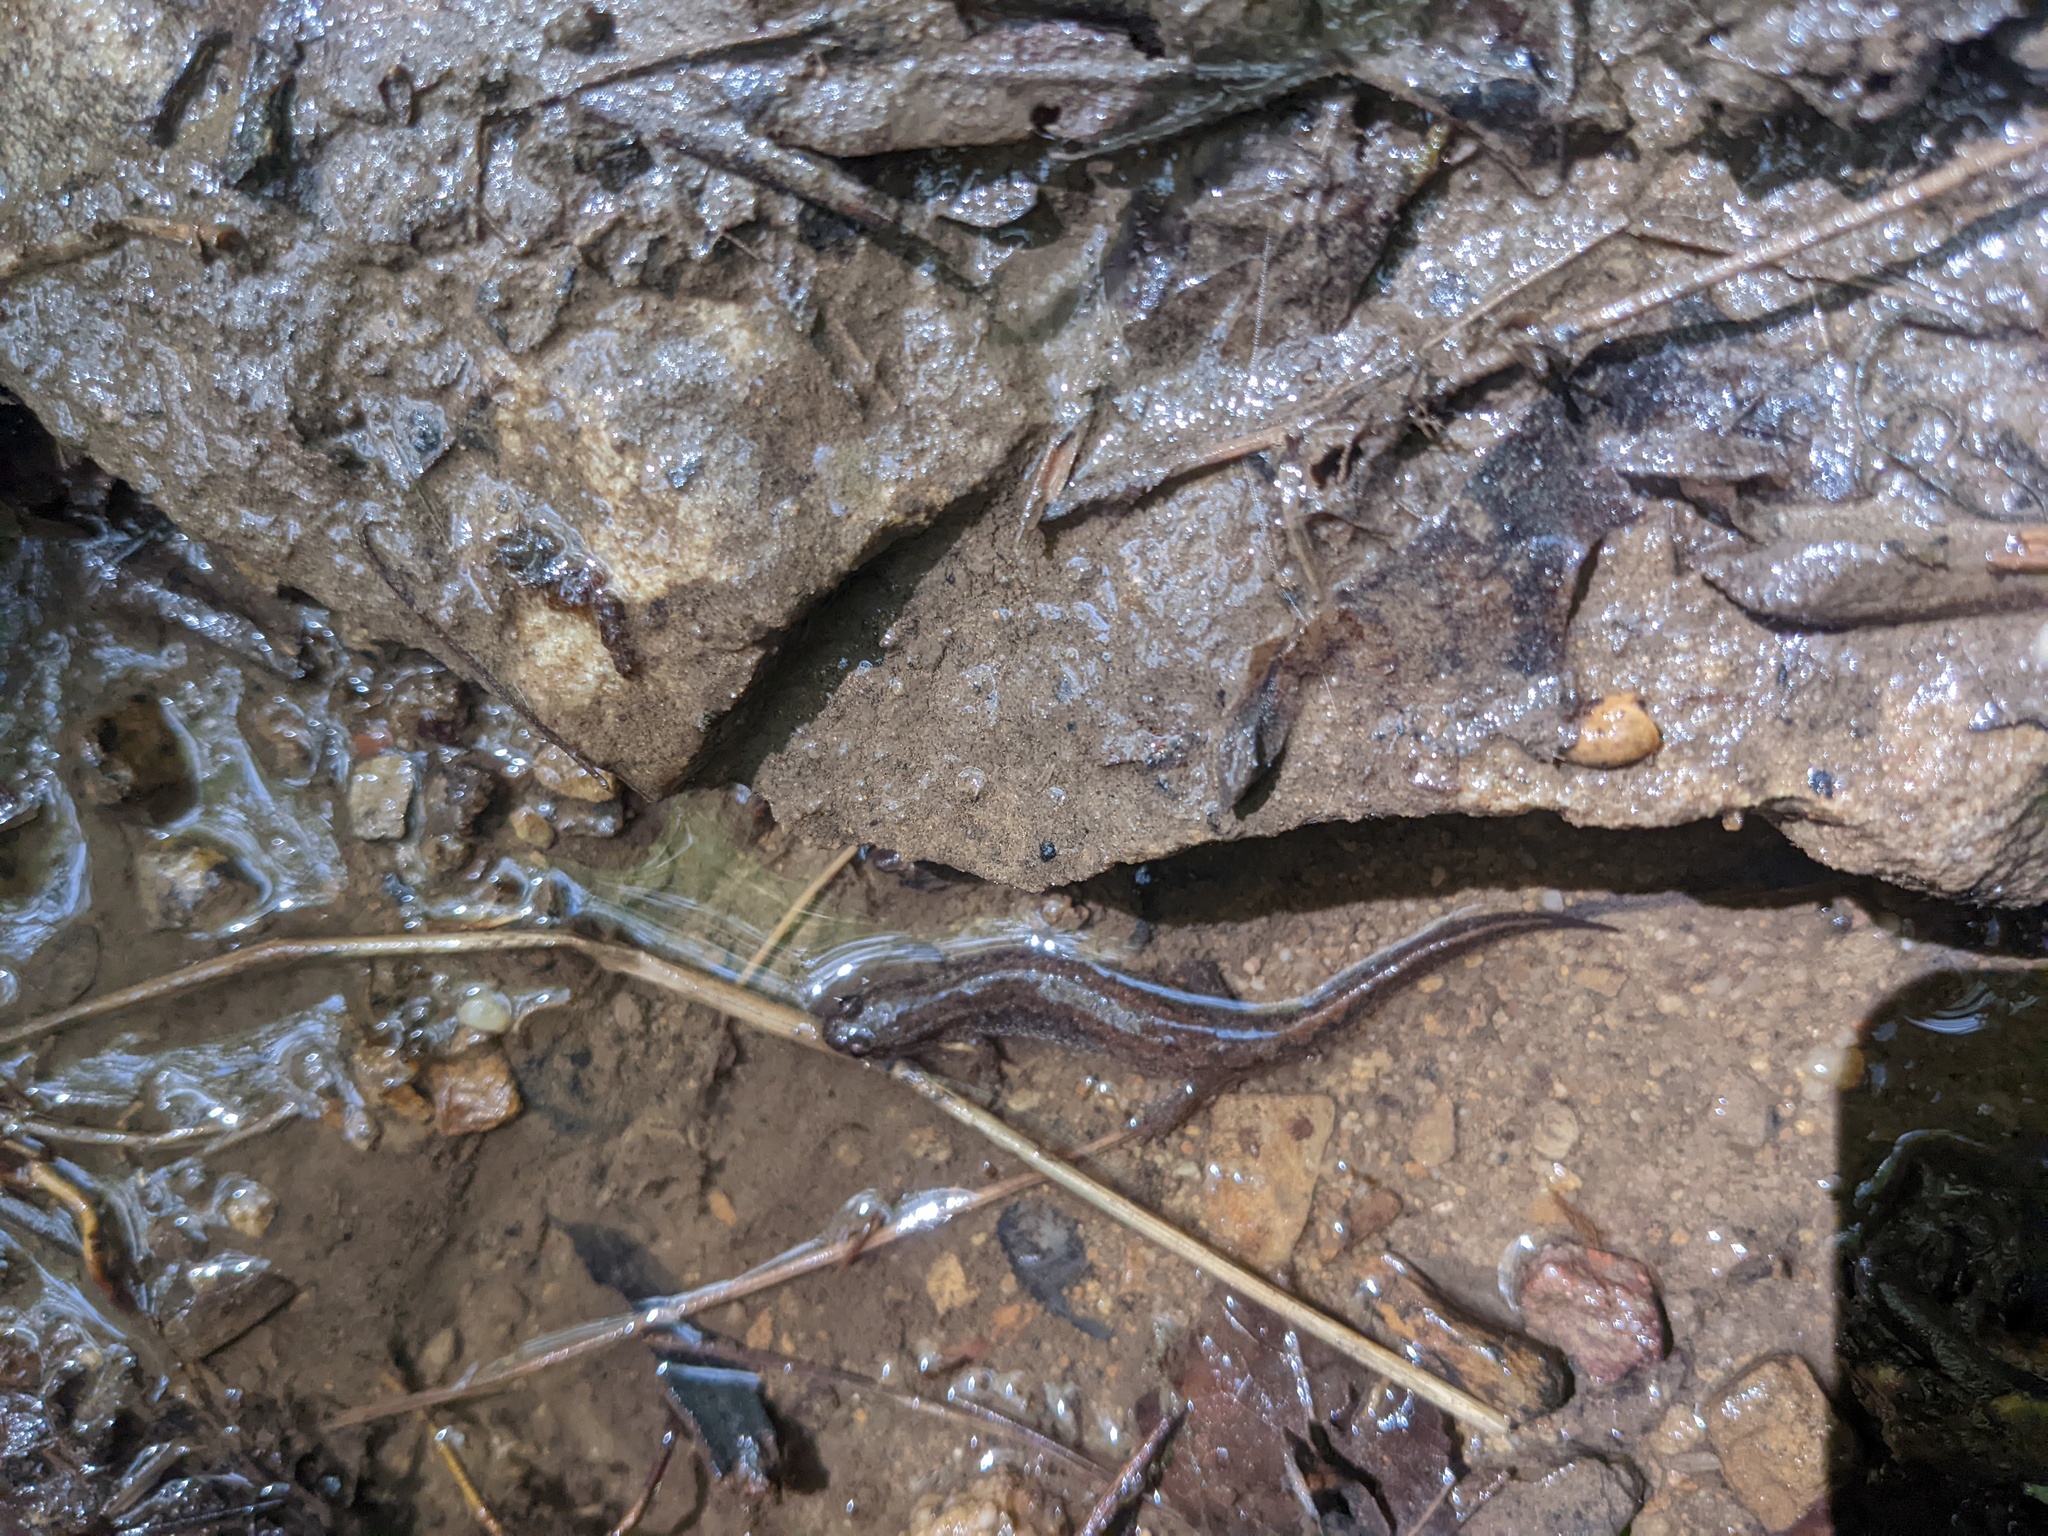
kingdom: Animalia
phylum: Chordata
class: Amphibia
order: Caudata
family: Plethodontidae
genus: Desmognathus
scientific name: Desmognathus fuscus
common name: Northern dusky salamander
